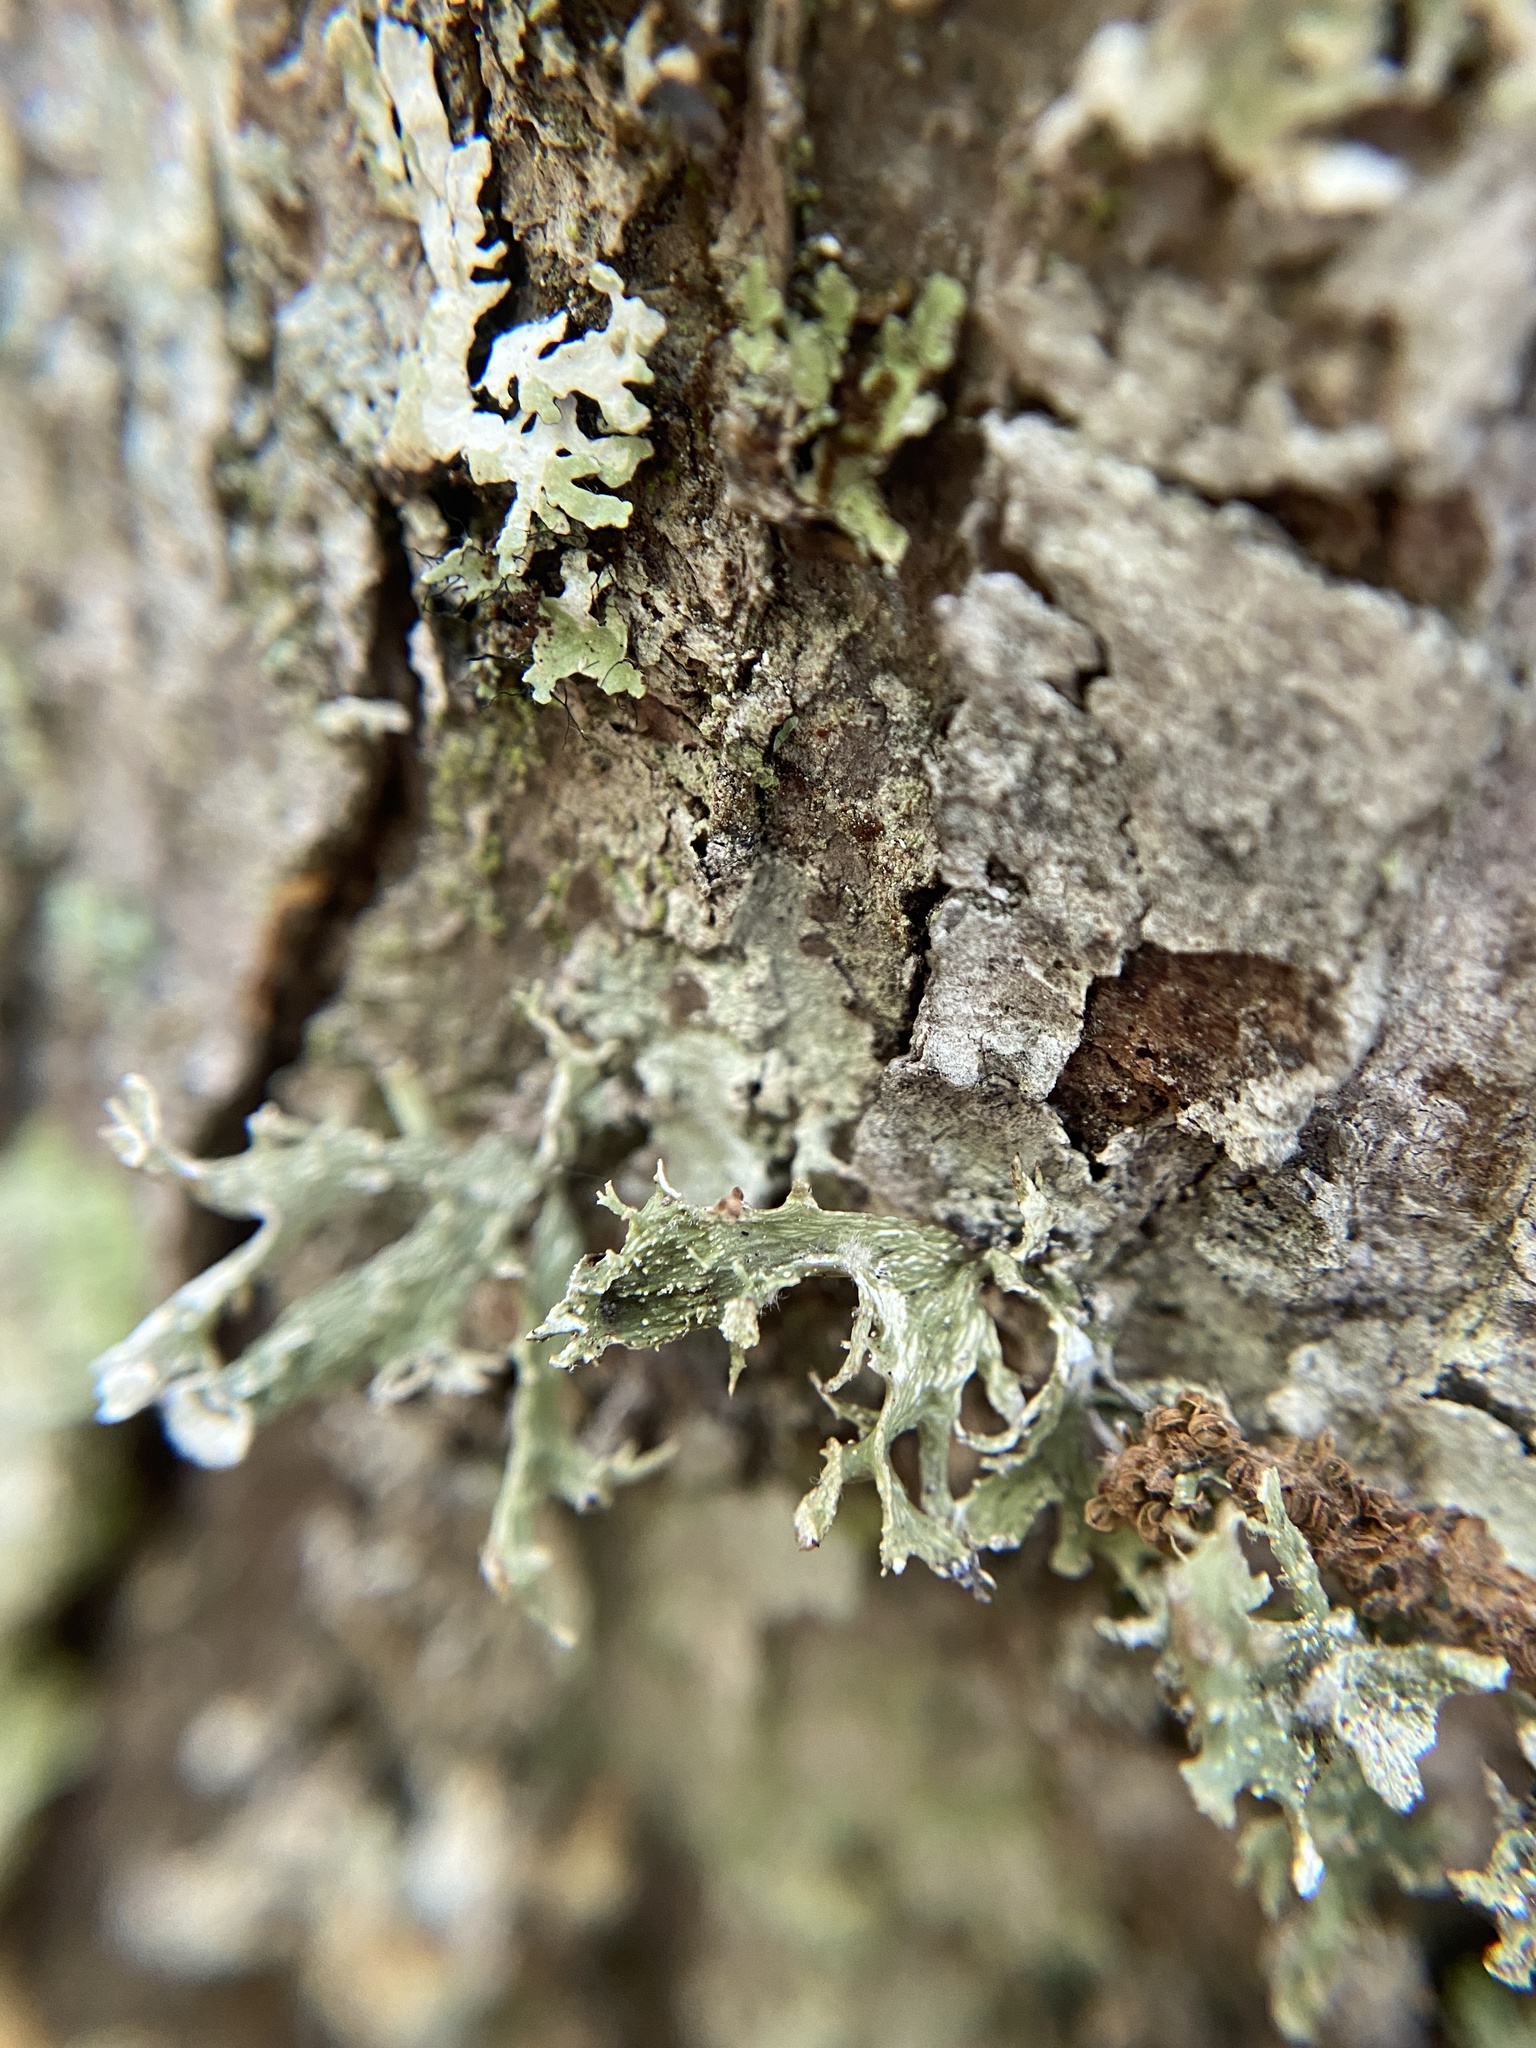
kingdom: Fungi
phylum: Ascomycota
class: Lecanoromycetes
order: Lecanorales
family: Ramalinaceae
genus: Ramalina
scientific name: Ramalina americana
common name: Sinewed bush lichen
